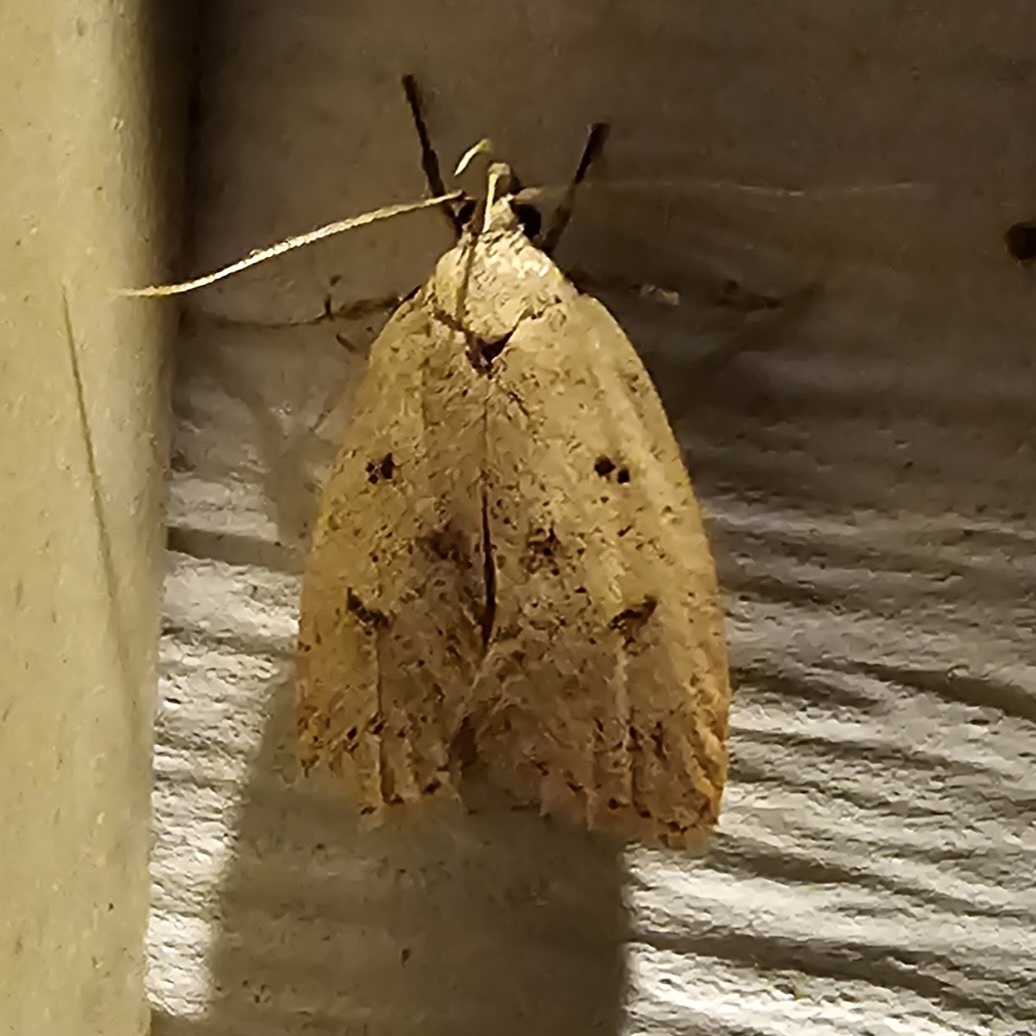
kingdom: Animalia
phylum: Arthropoda
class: Insecta
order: Lepidoptera
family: Peleopodidae
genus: Machimia
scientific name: Machimia tentoriferella
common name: Gold-striped leaftier moth
